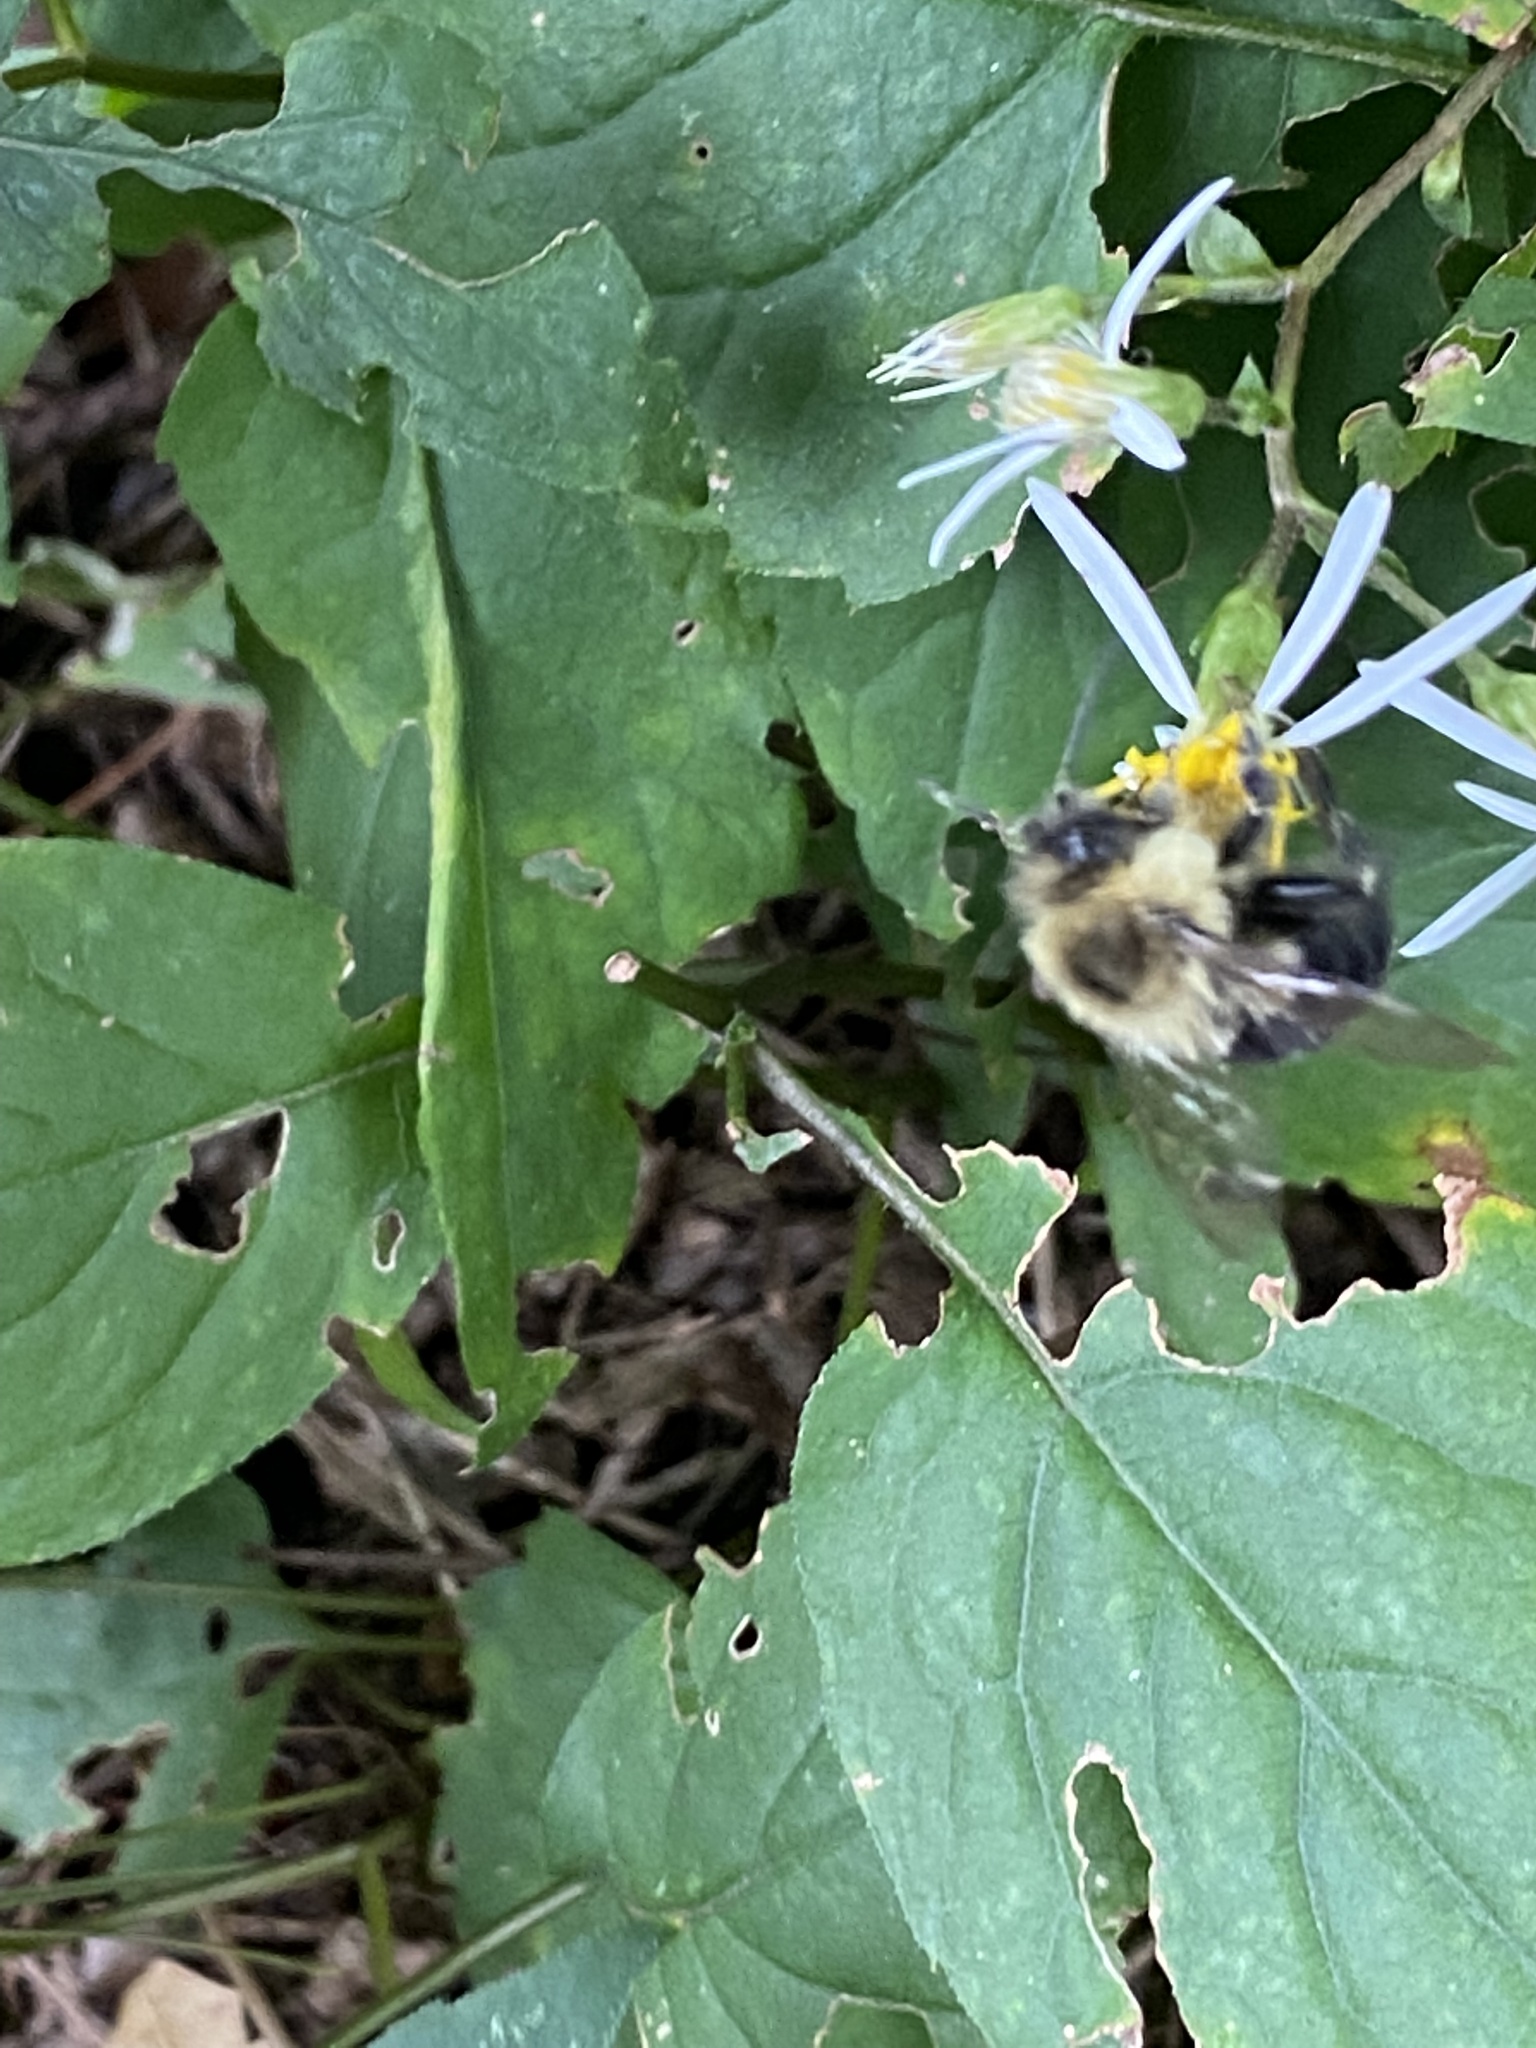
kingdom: Animalia
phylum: Arthropoda
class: Insecta
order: Hymenoptera
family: Apidae
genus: Bombus
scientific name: Bombus impatiens
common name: Common eastern bumble bee
